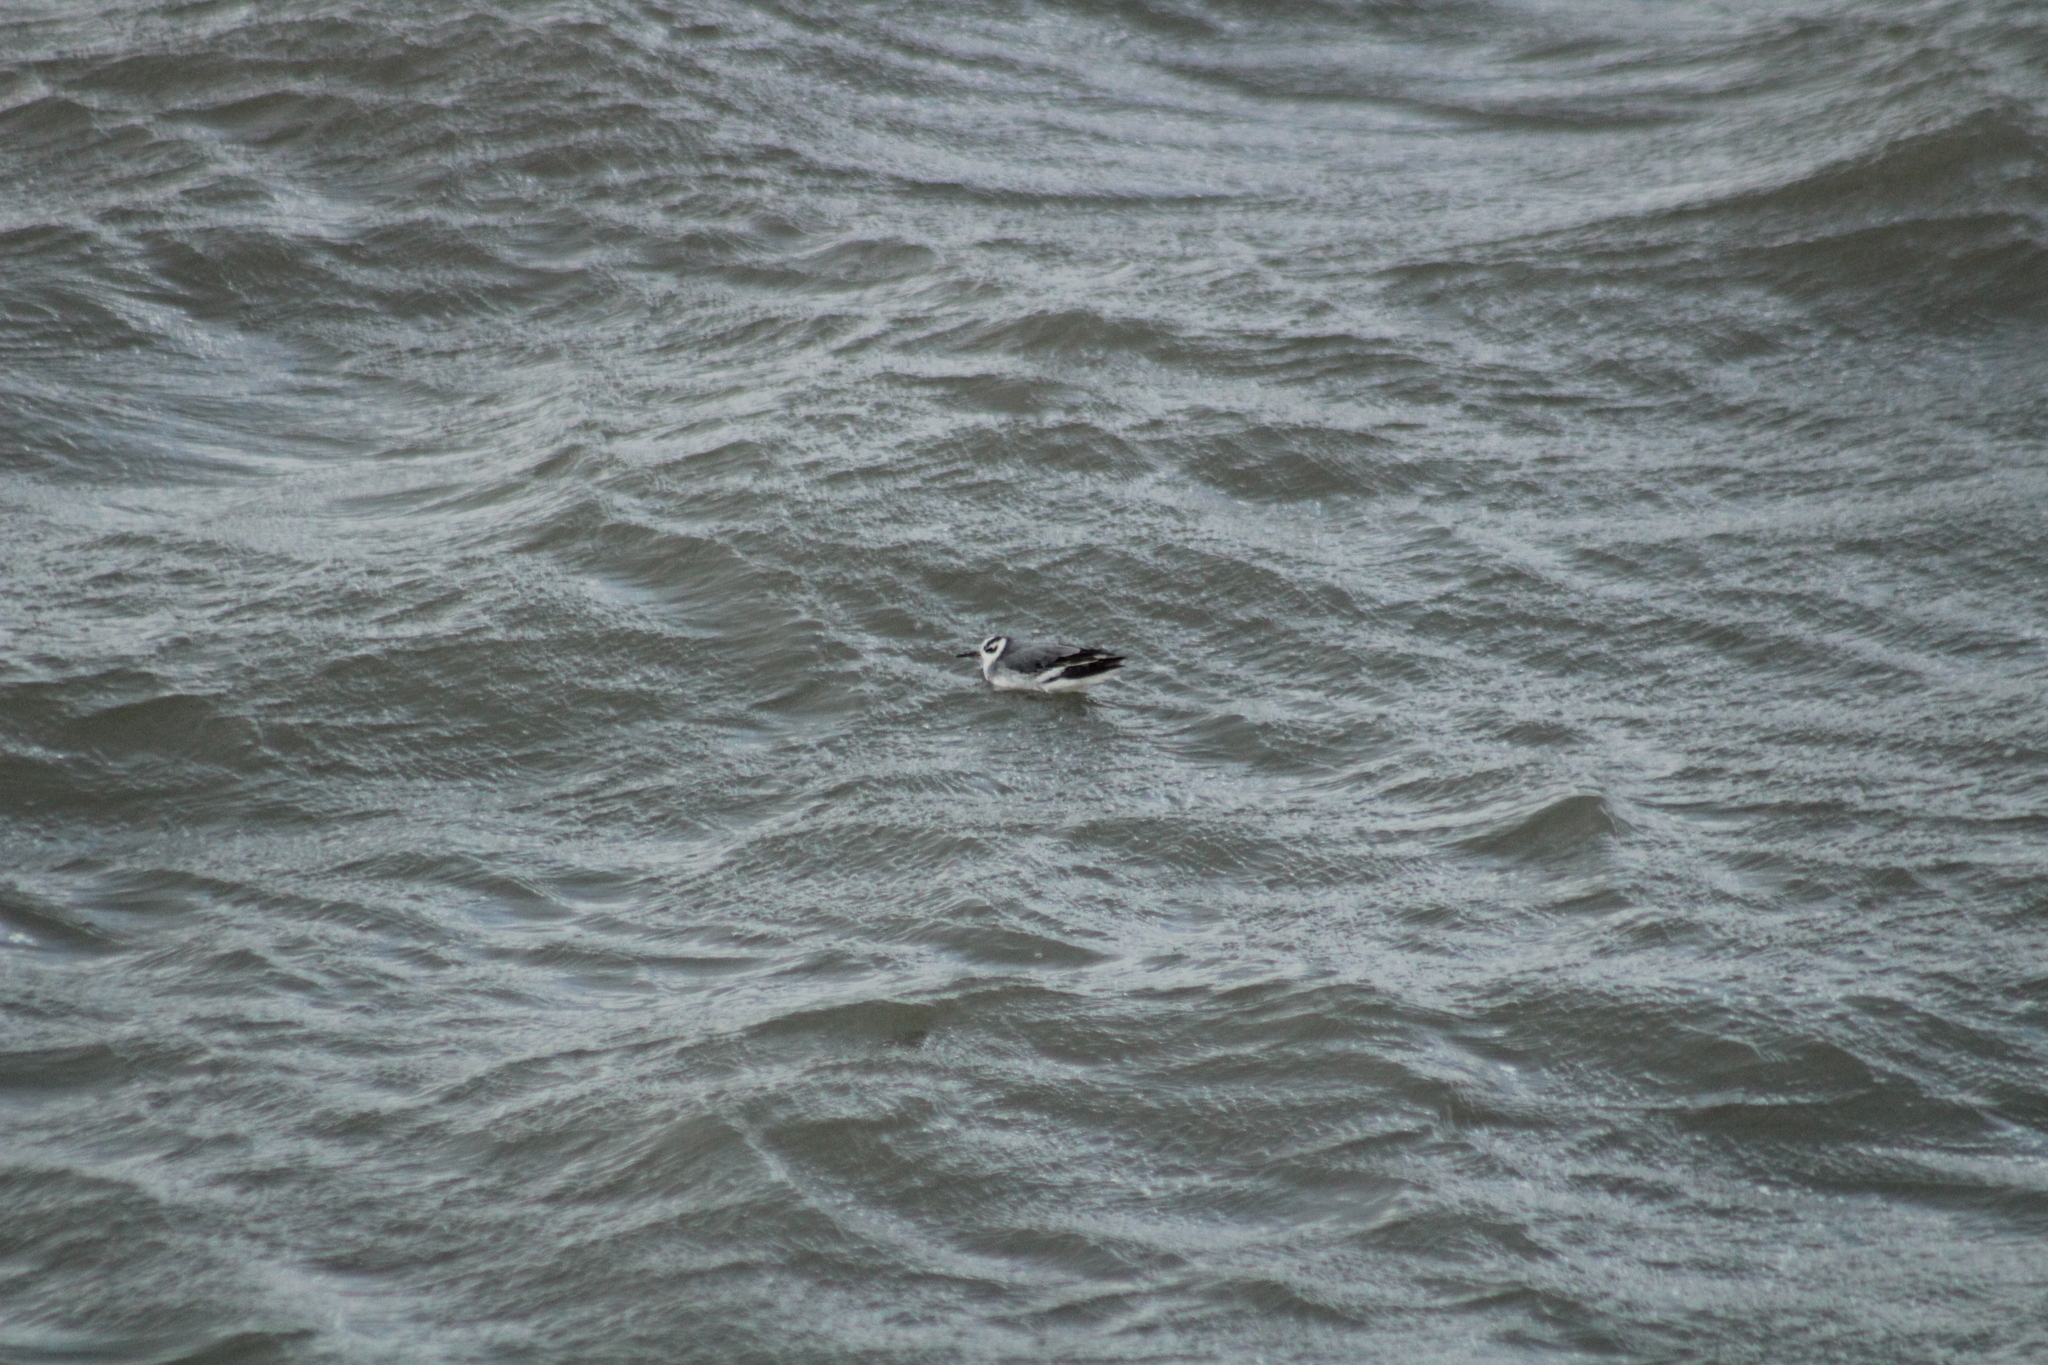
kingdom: Animalia
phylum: Chordata
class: Aves
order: Charadriiformes
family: Scolopacidae
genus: Phalaropus
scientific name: Phalaropus fulicarius
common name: Red phalarope
